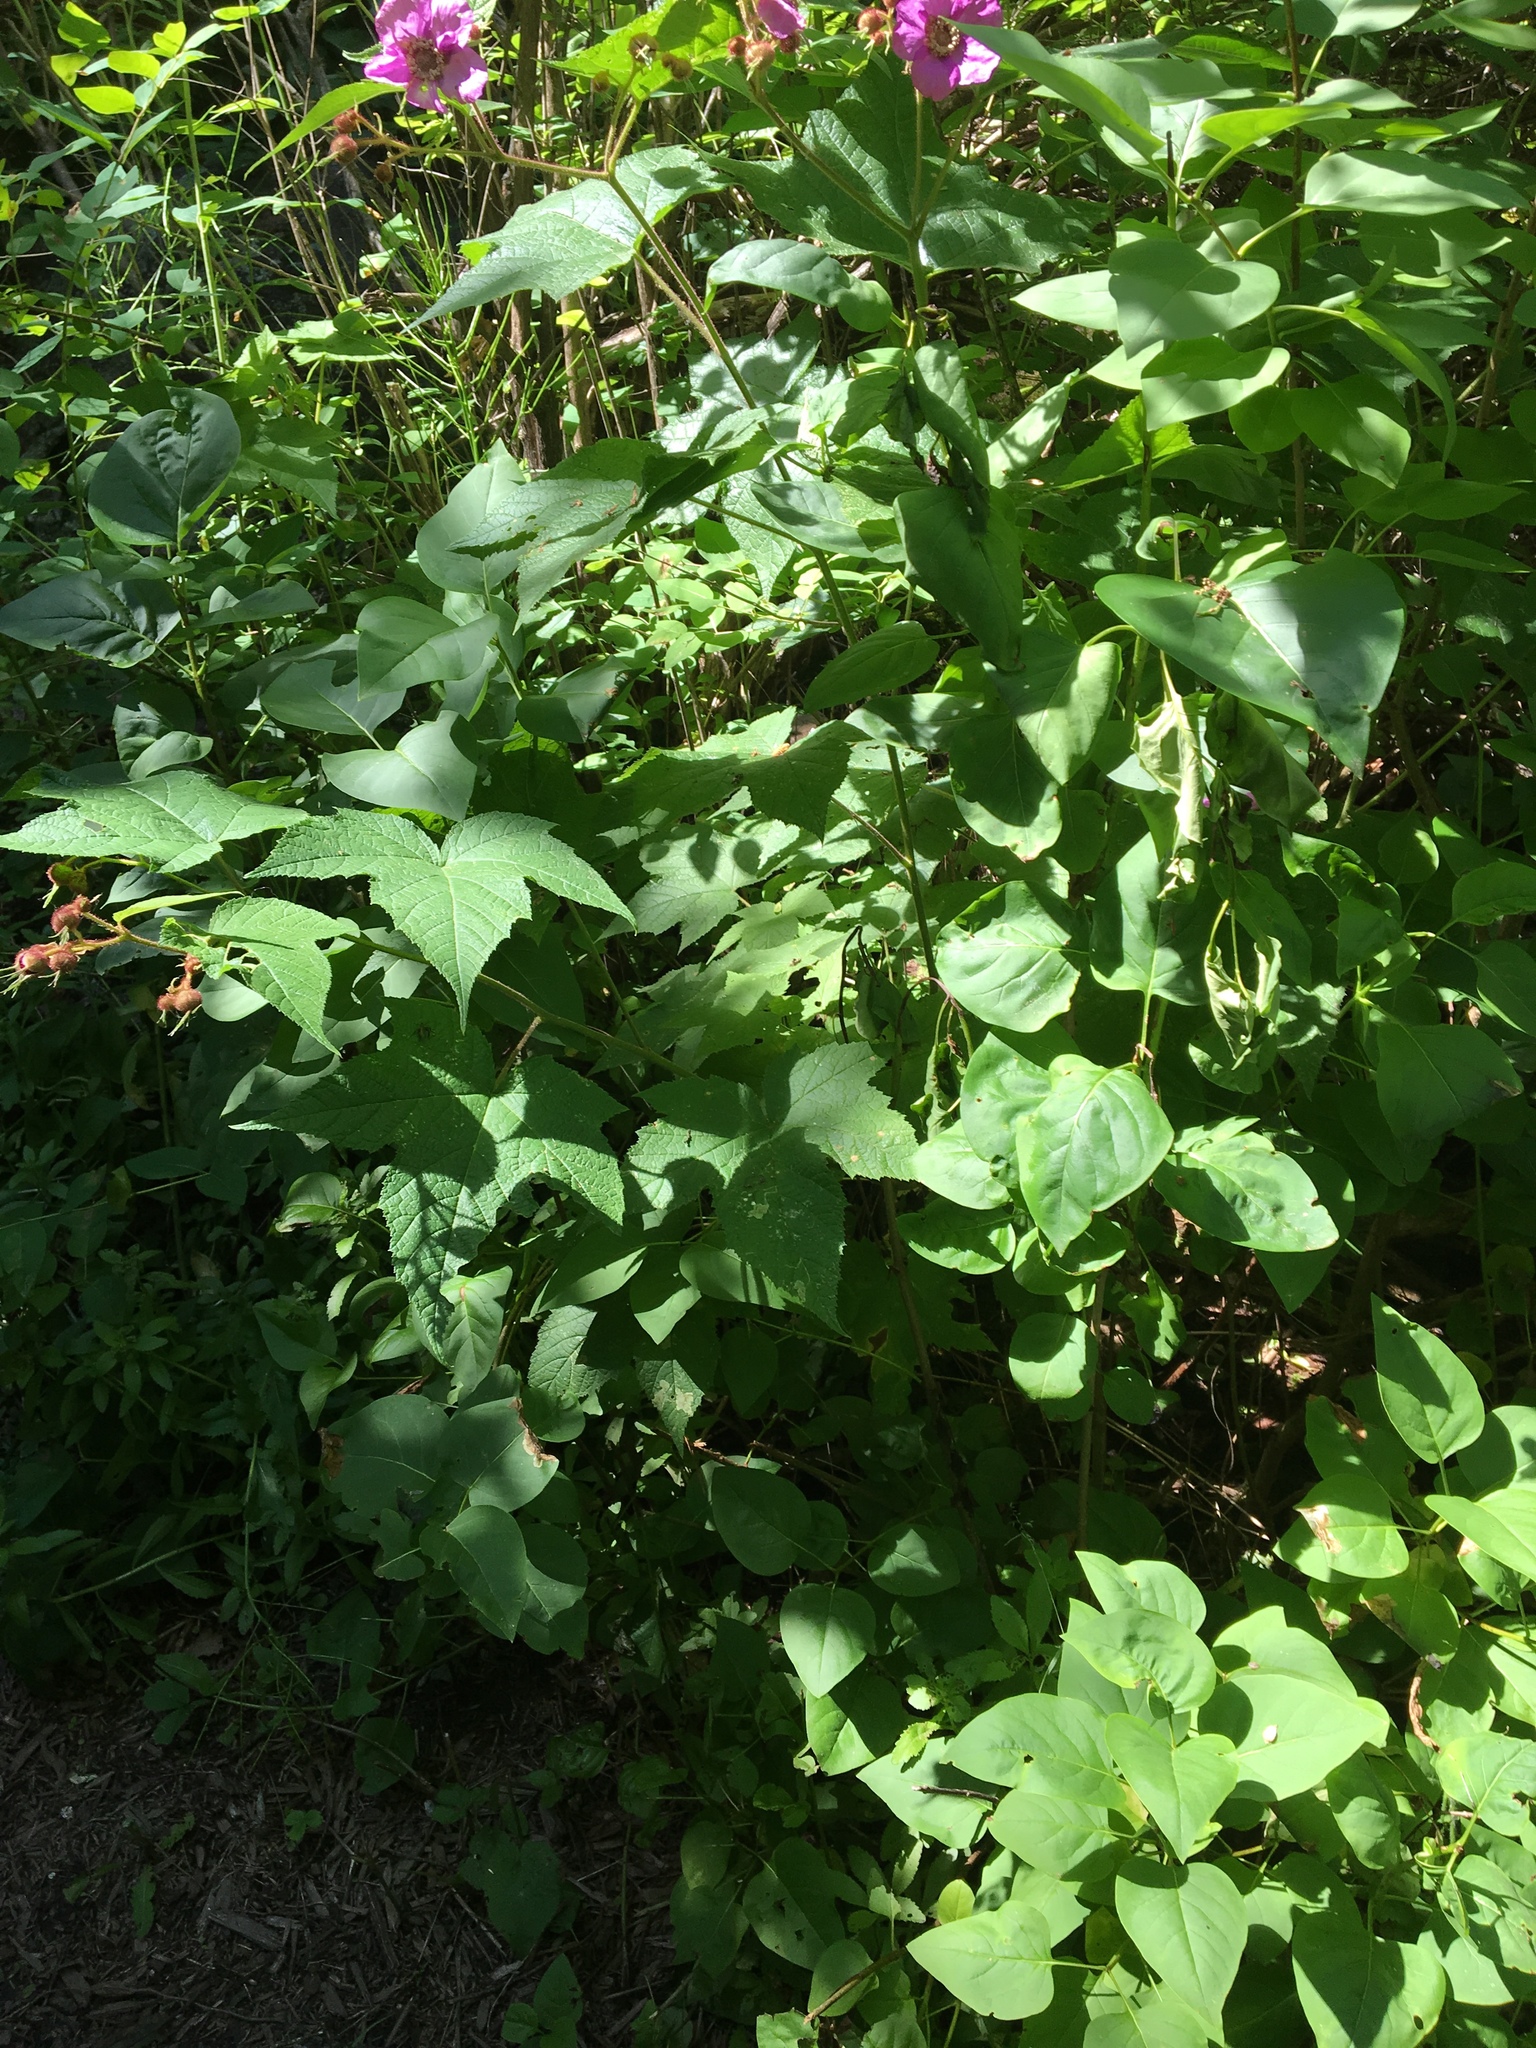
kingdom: Plantae
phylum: Tracheophyta
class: Magnoliopsida
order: Rosales
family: Rosaceae
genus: Rubus
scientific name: Rubus odoratus
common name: Purple-flowered raspberry
